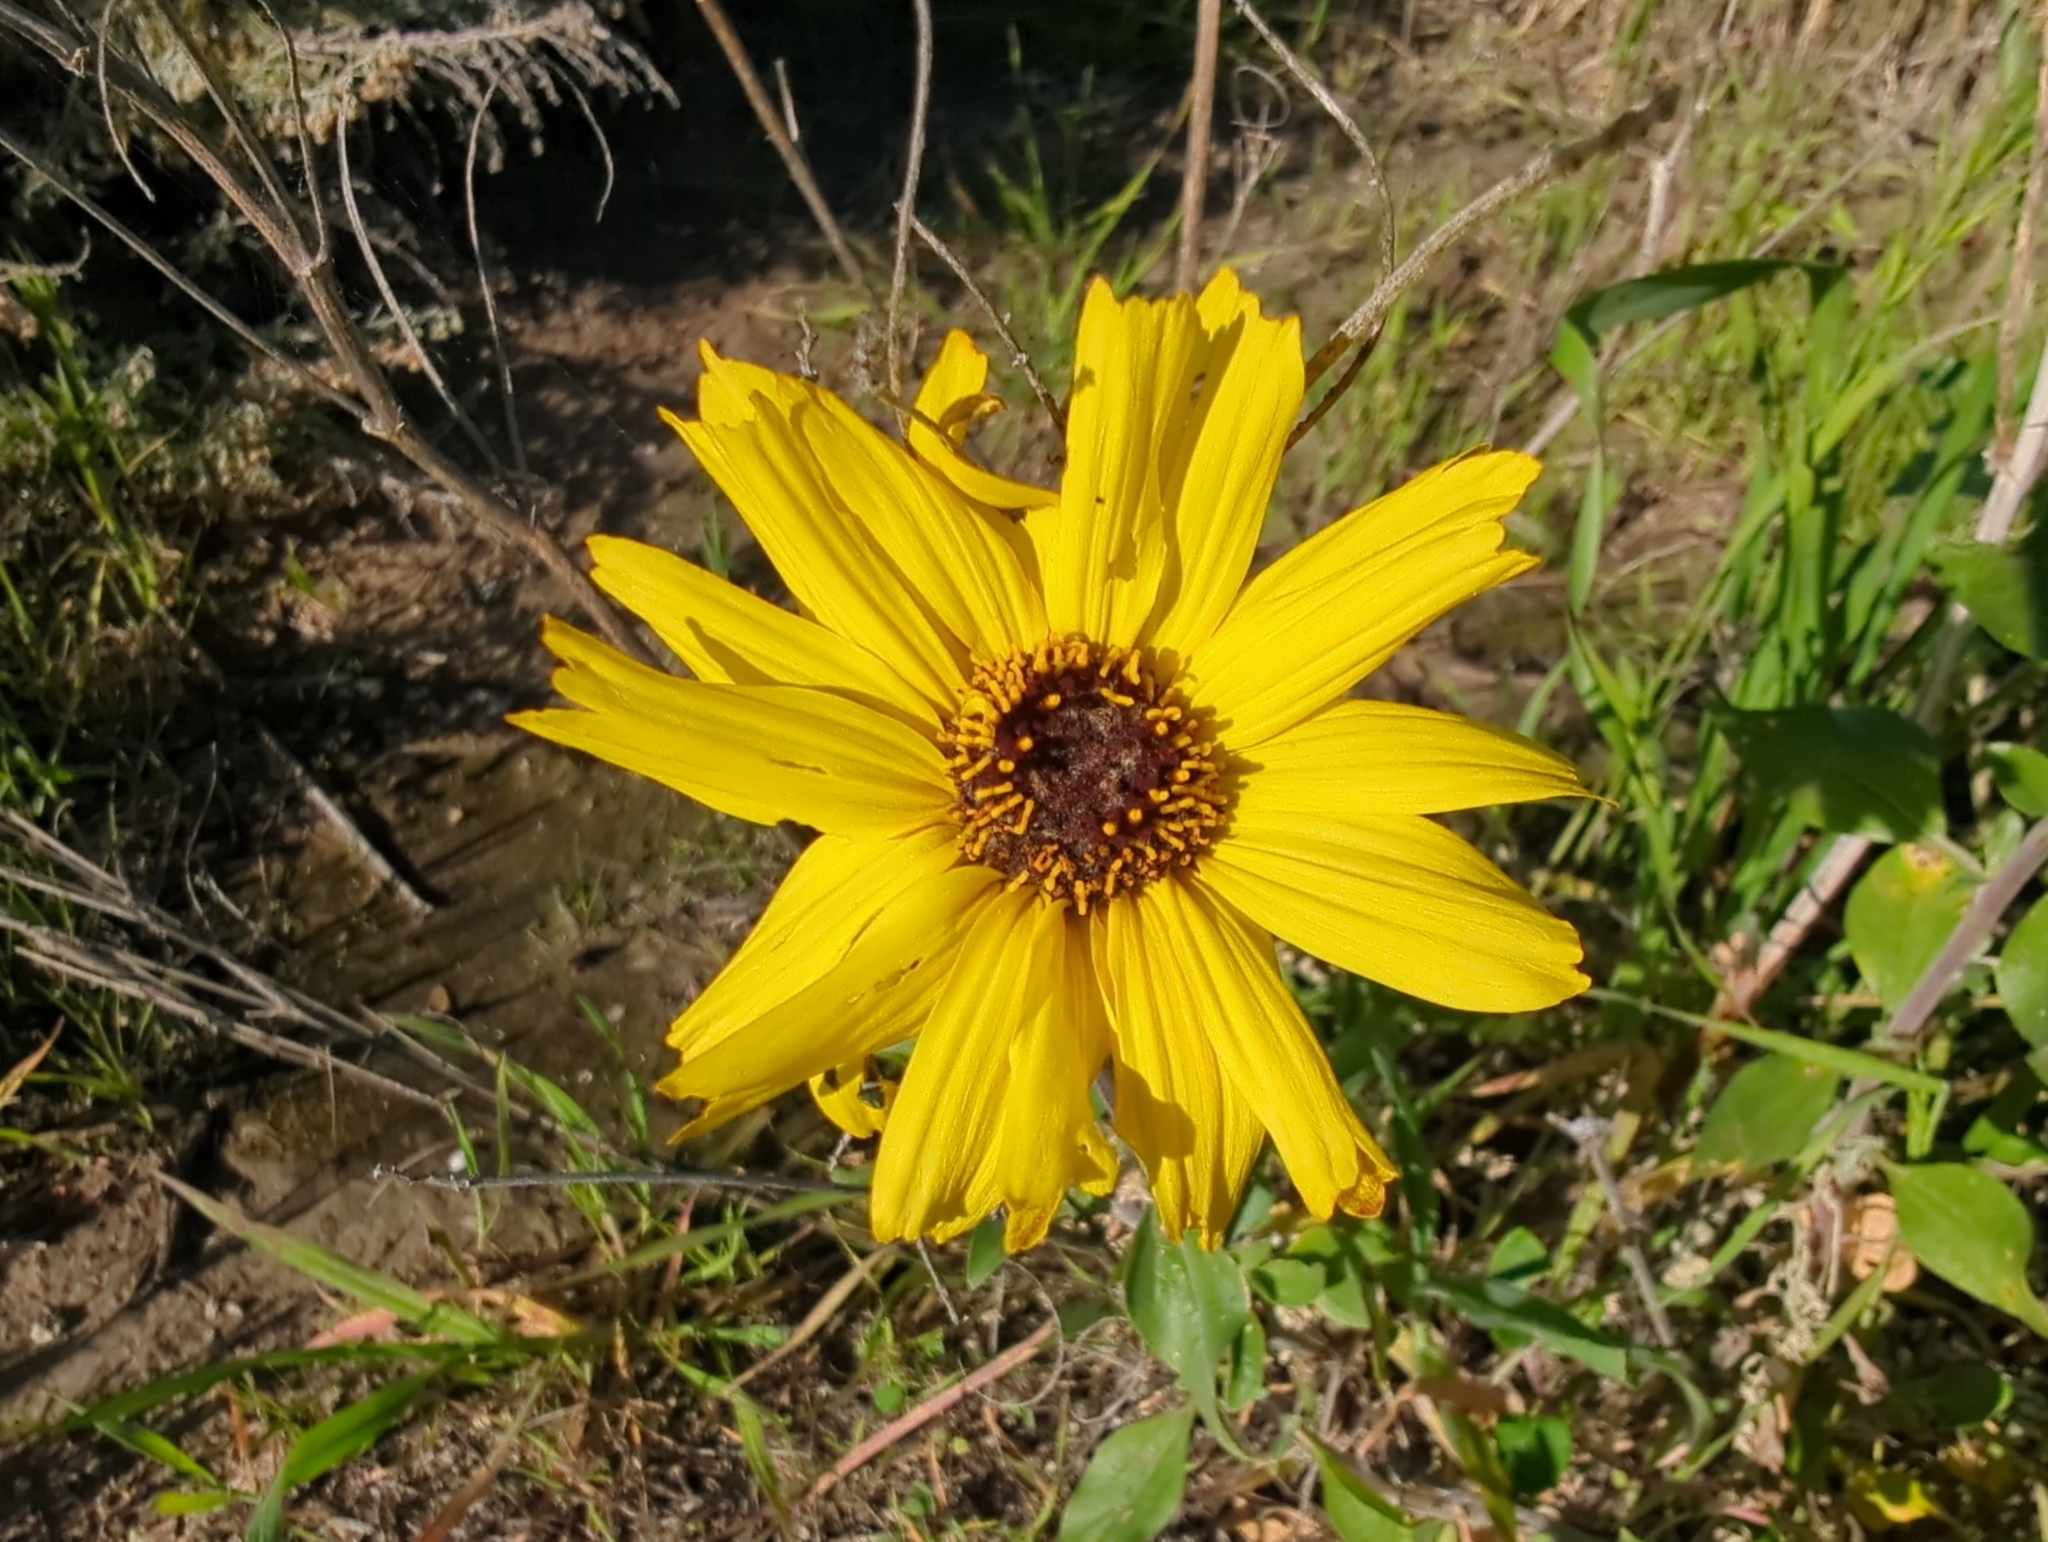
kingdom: Plantae
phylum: Tracheophyta
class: Magnoliopsida
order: Asterales
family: Asteraceae
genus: Encelia
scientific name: Encelia californica
